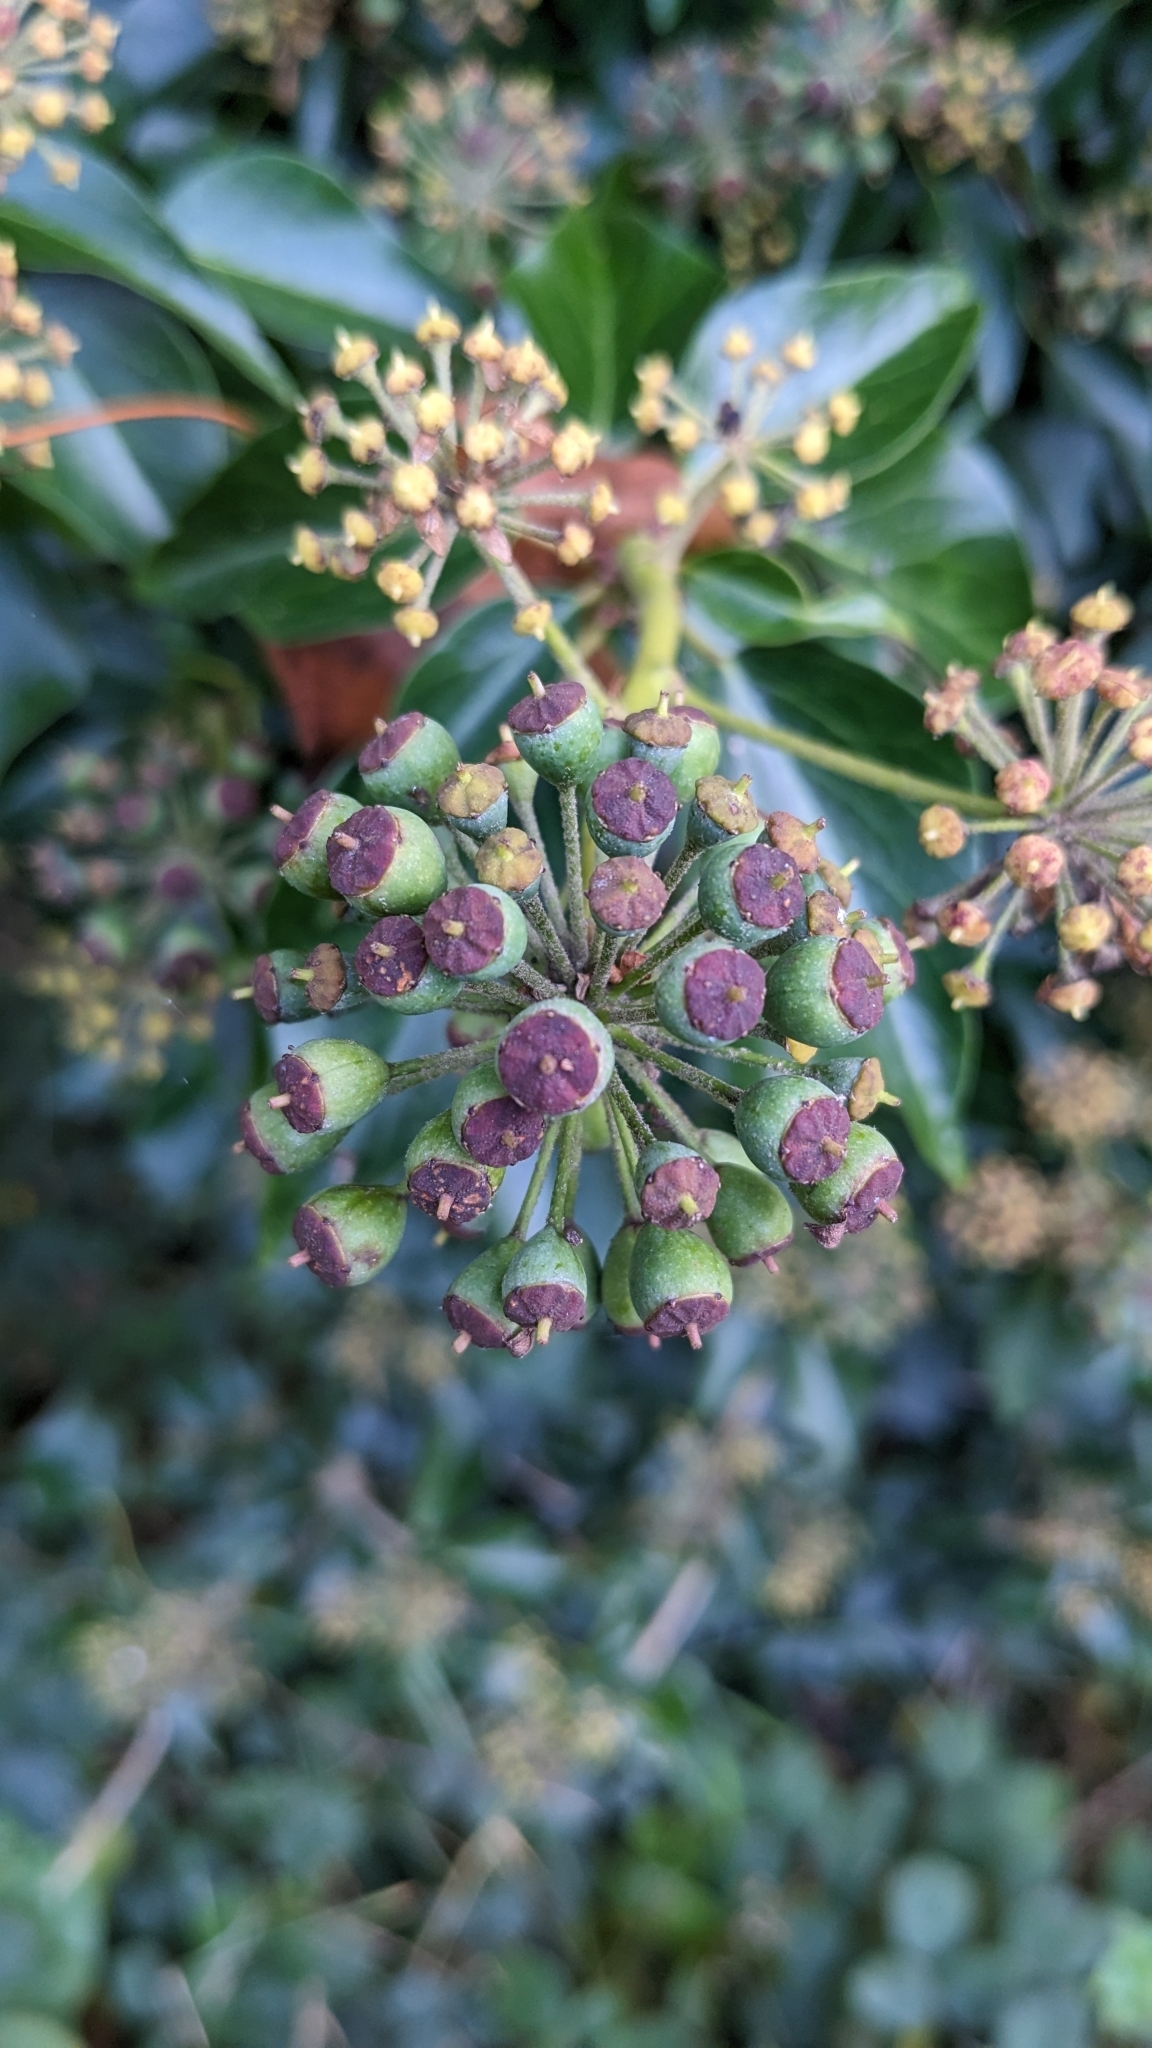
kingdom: Plantae
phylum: Tracheophyta
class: Magnoliopsida
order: Apiales
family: Araliaceae
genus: Hedera
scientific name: Hedera helix
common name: Ivy
